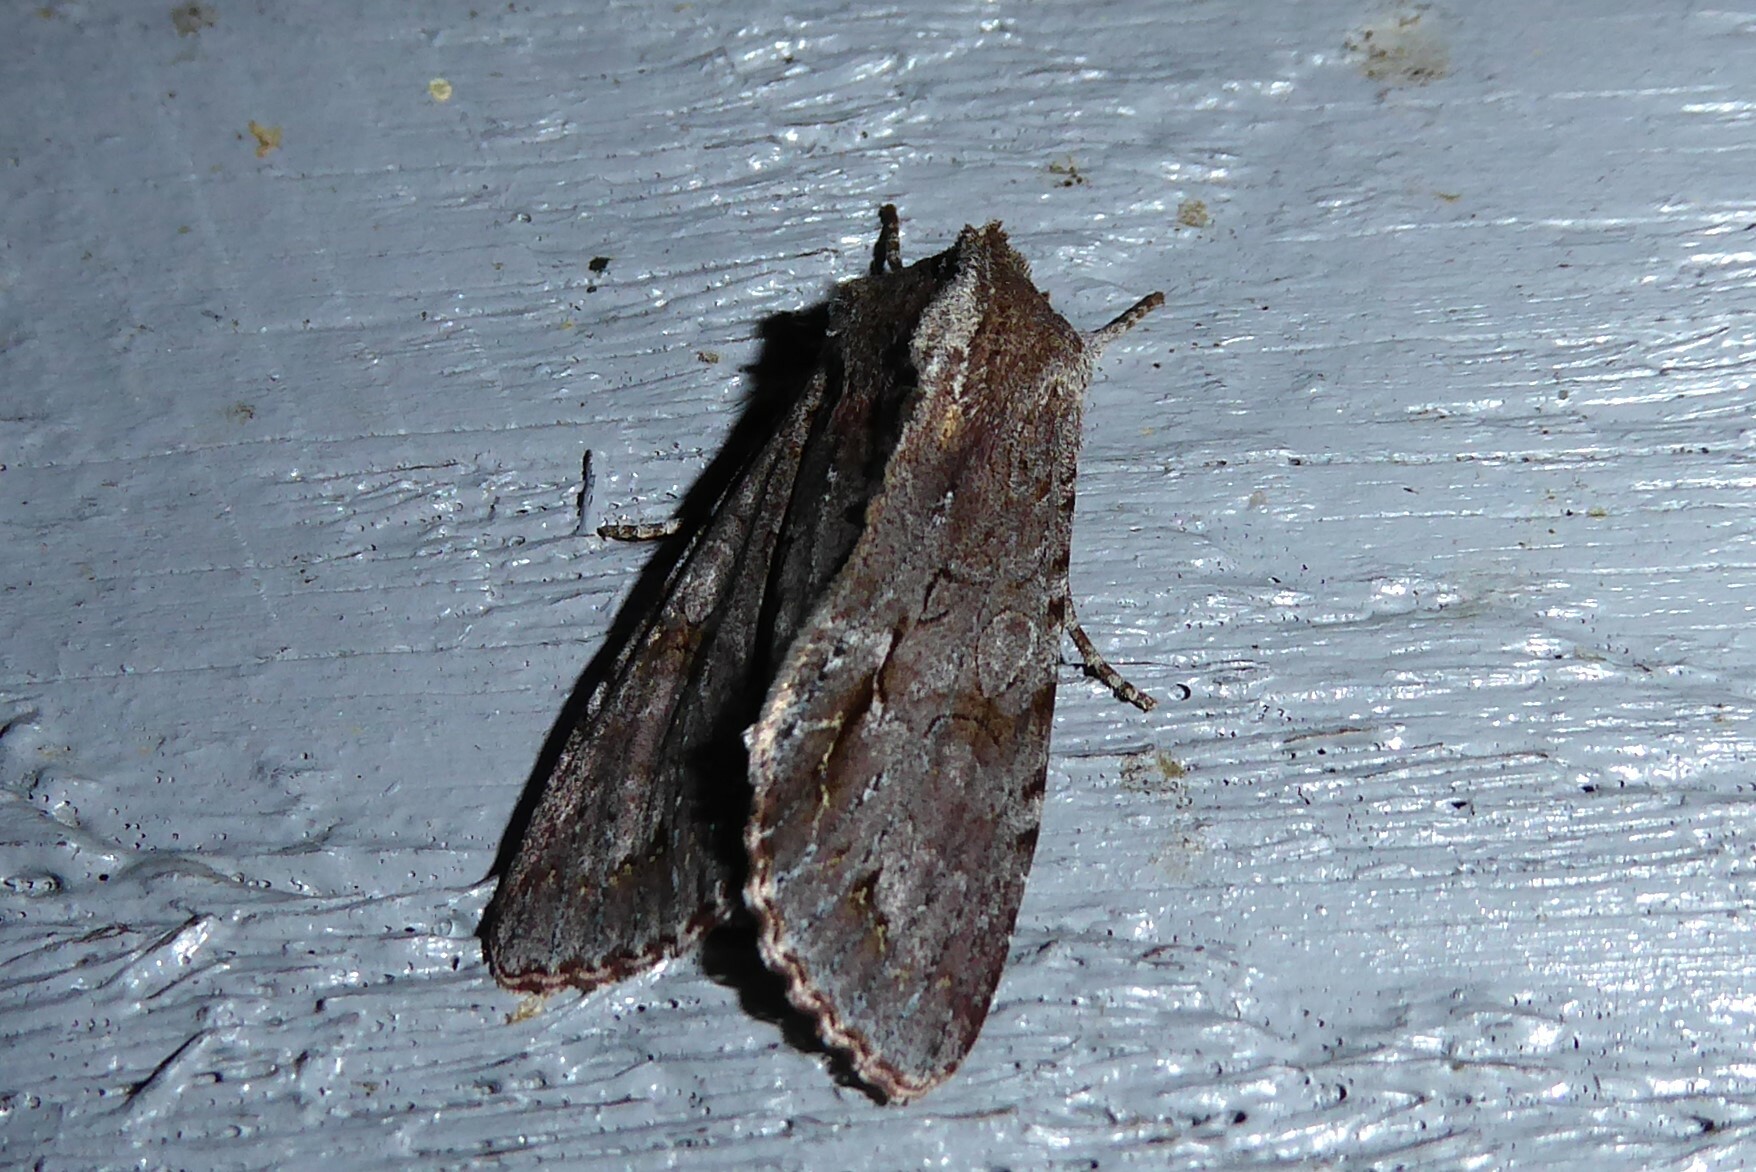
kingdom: Animalia
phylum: Arthropoda
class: Insecta
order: Lepidoptera
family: Noctuidae
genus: Ichneutica
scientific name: Ichneutica
